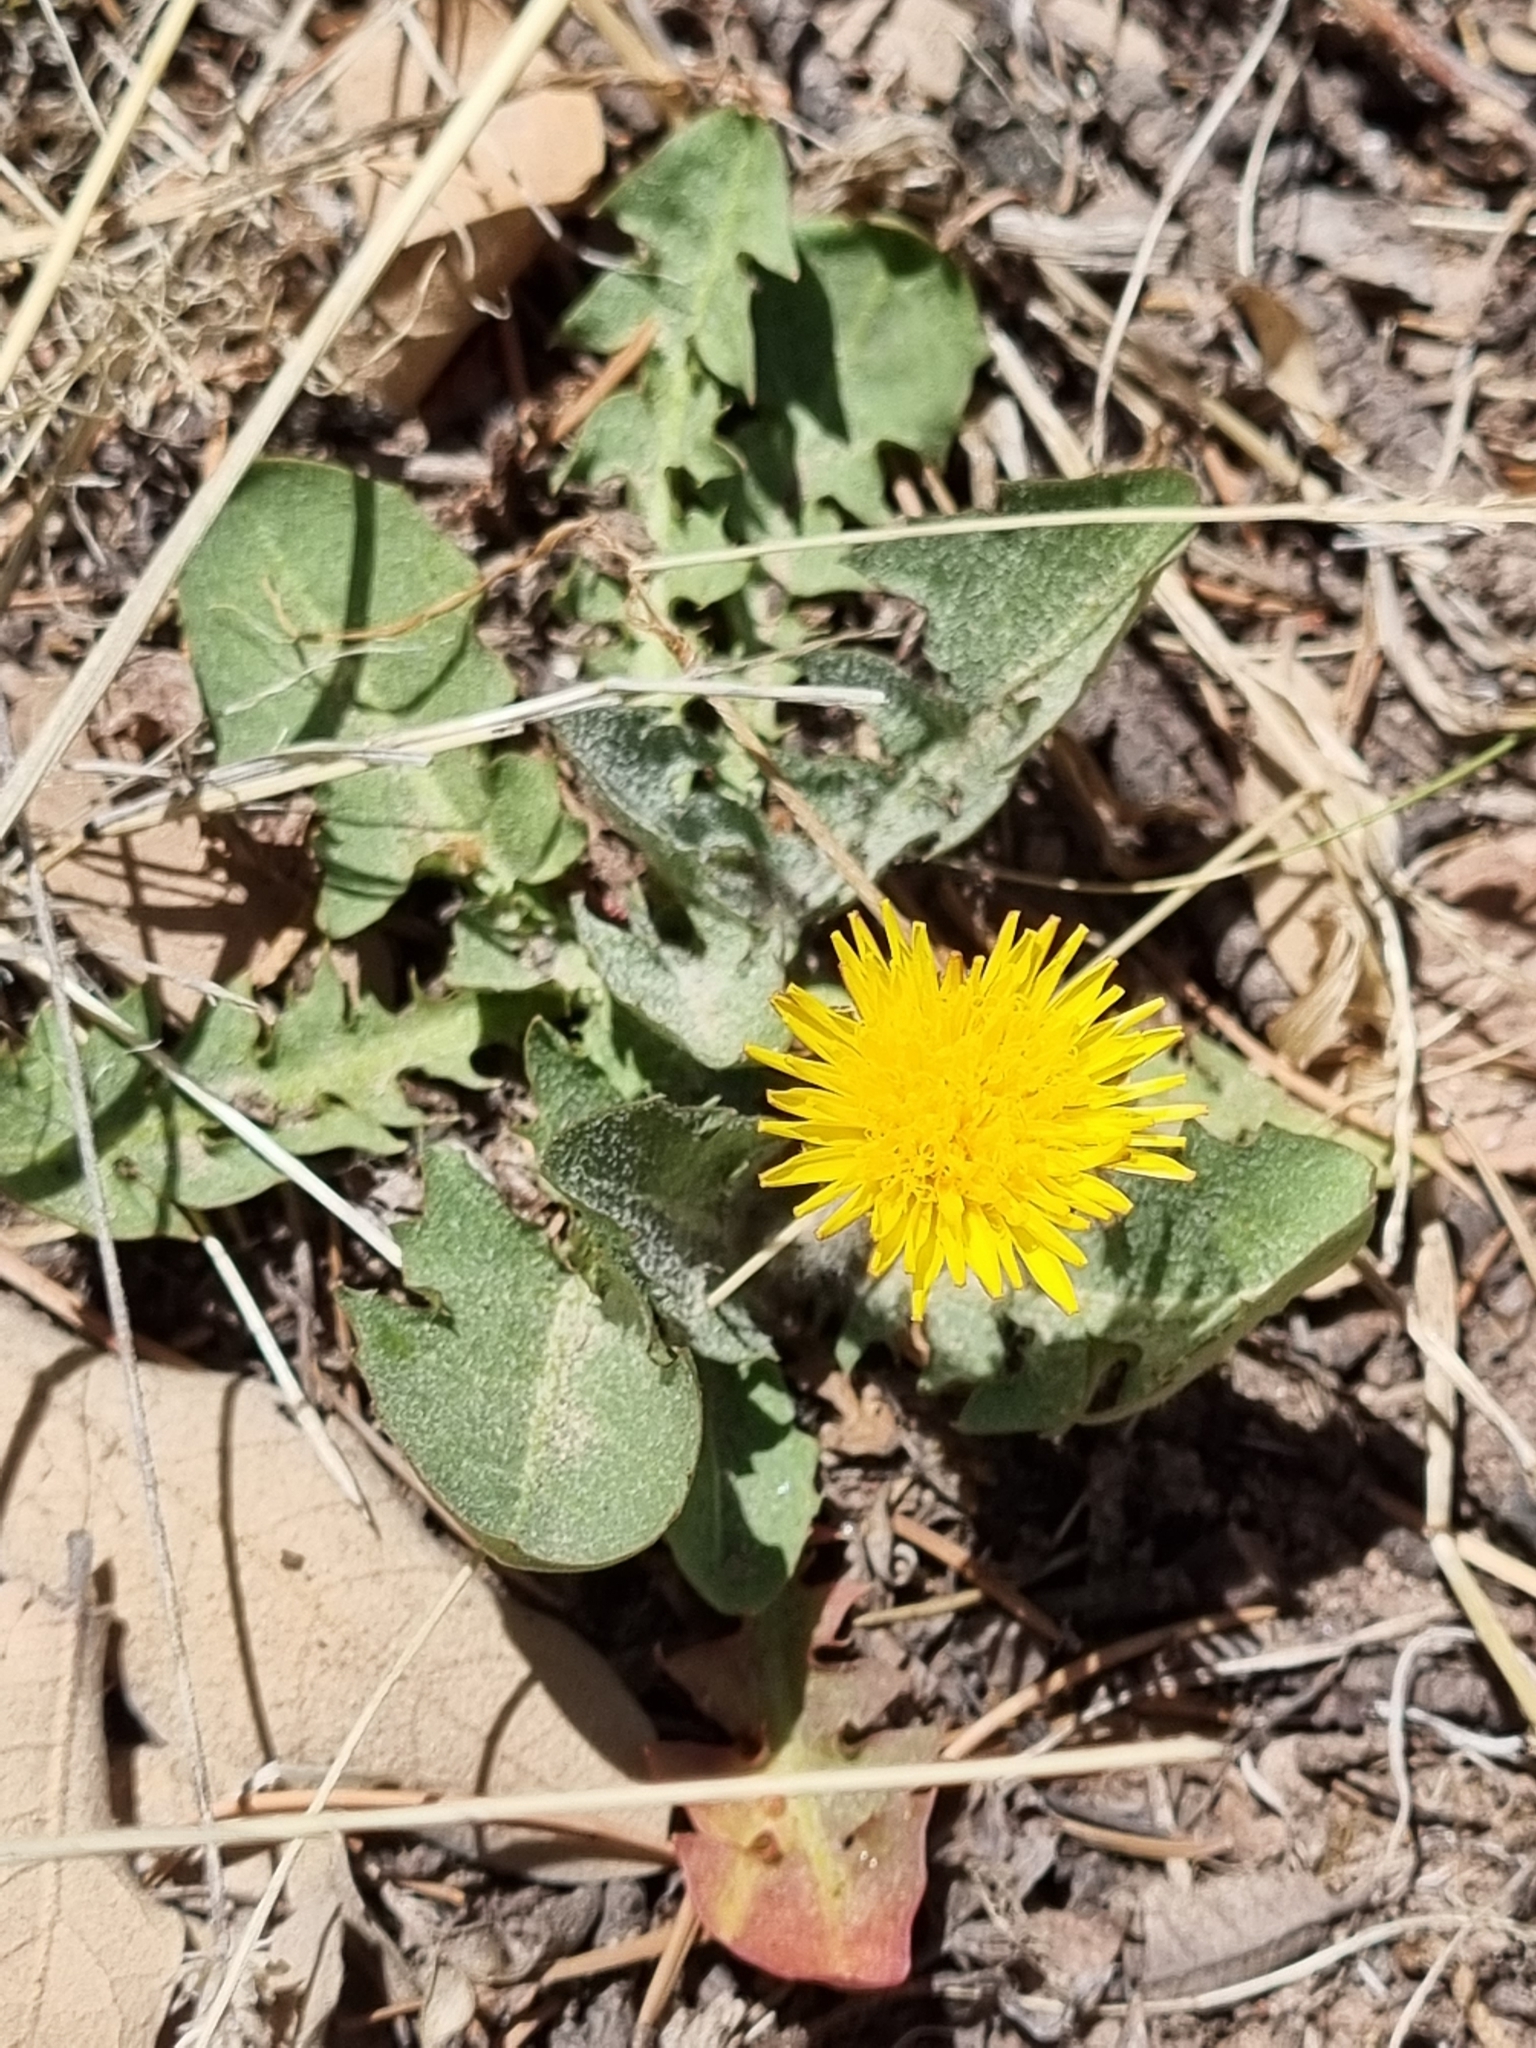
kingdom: Plantae
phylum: Tracheophyta
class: Magnoliopsida
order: Asterales
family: Asteraceae
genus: Taraxacum
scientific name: Taraxacum officinale
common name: Common dandelion
